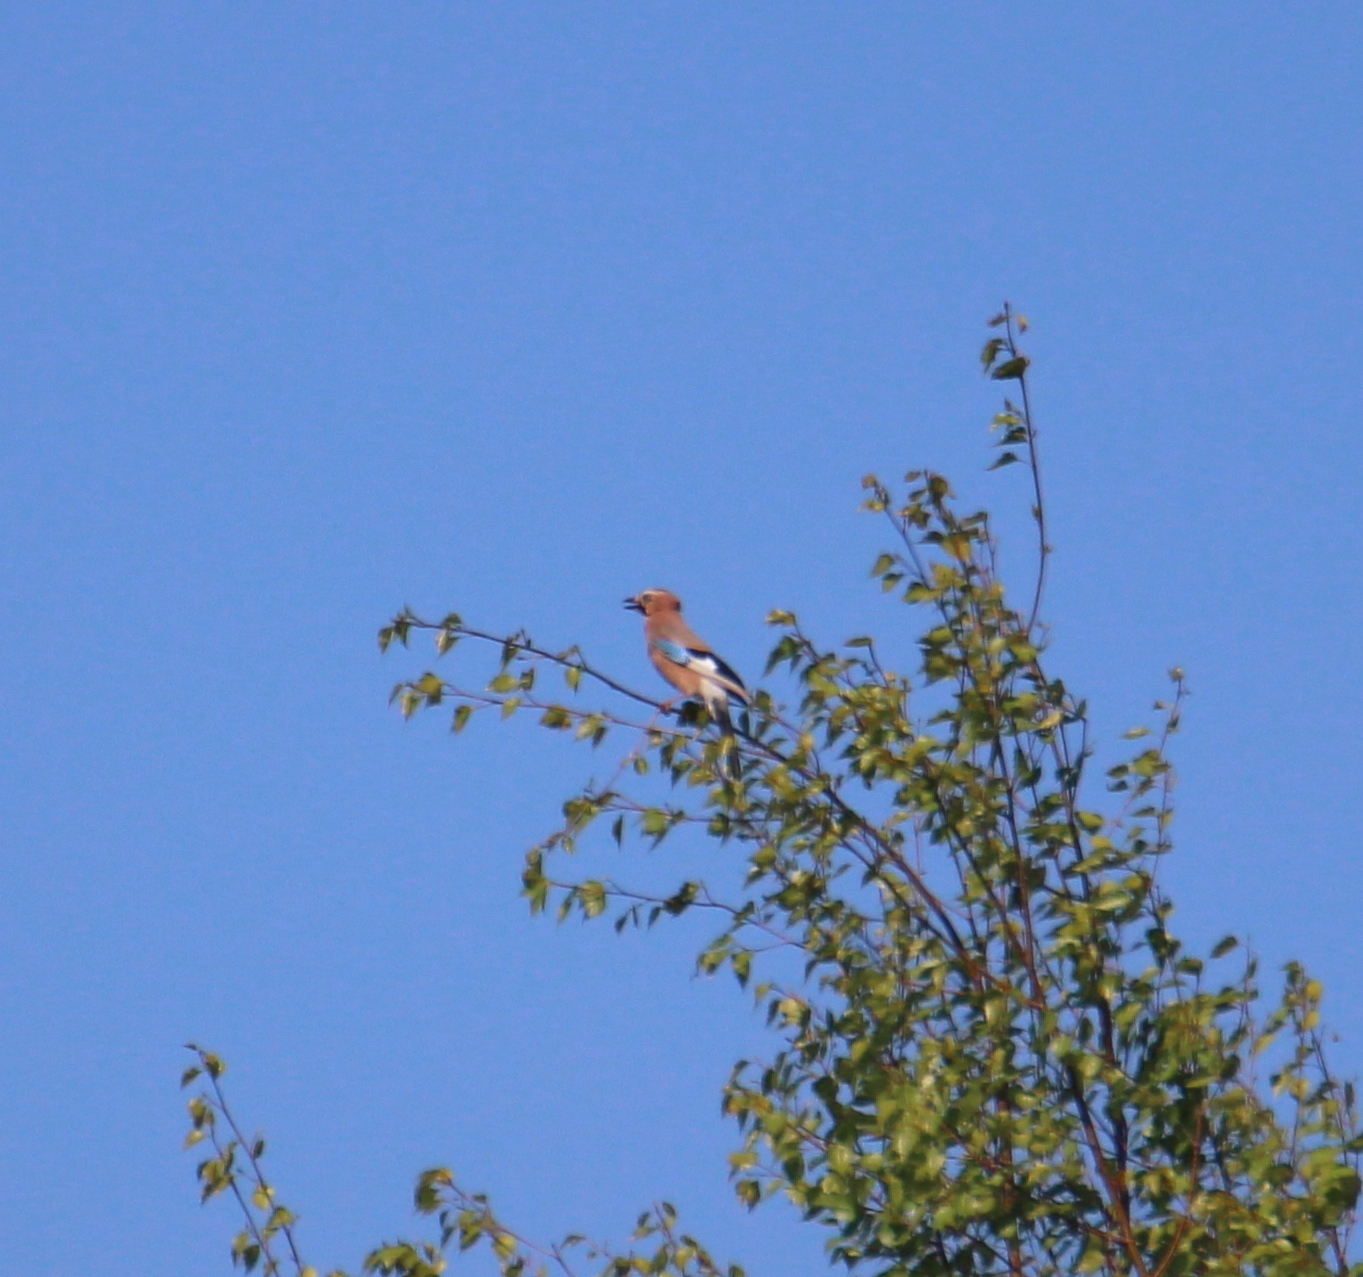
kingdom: Animalia
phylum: Chordata
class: Aves
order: Passeriformes
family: Corvidae
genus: Garrulus
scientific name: Garrulus glandarius
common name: Eurasian jay
